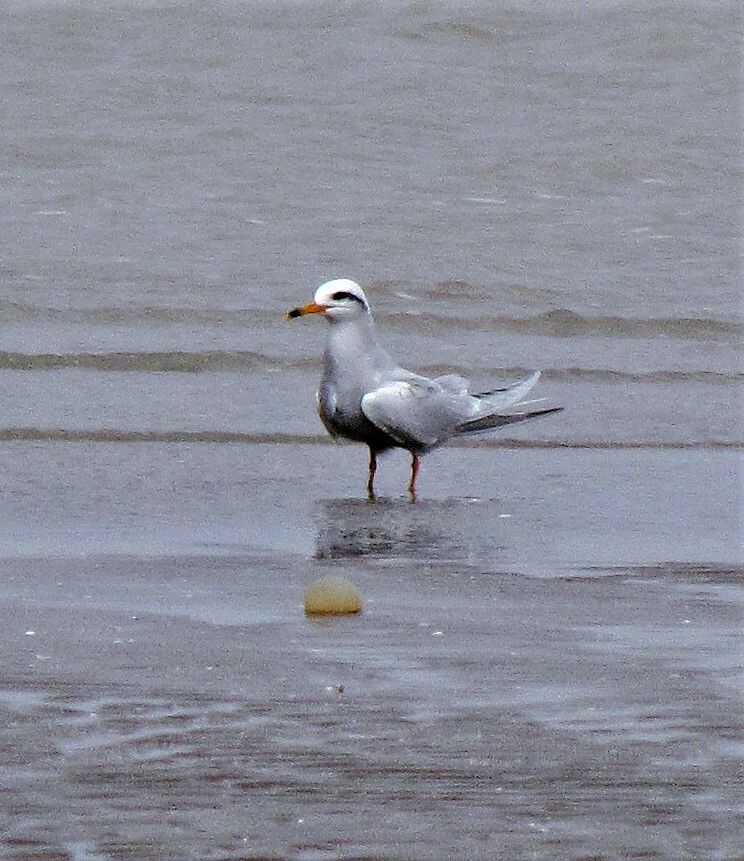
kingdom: Animalia
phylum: Chordata
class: Aves
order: Charadriiformes
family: Laridae
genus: Sterna
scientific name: Sterna trudeaui
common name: Snowy-crowned tern
